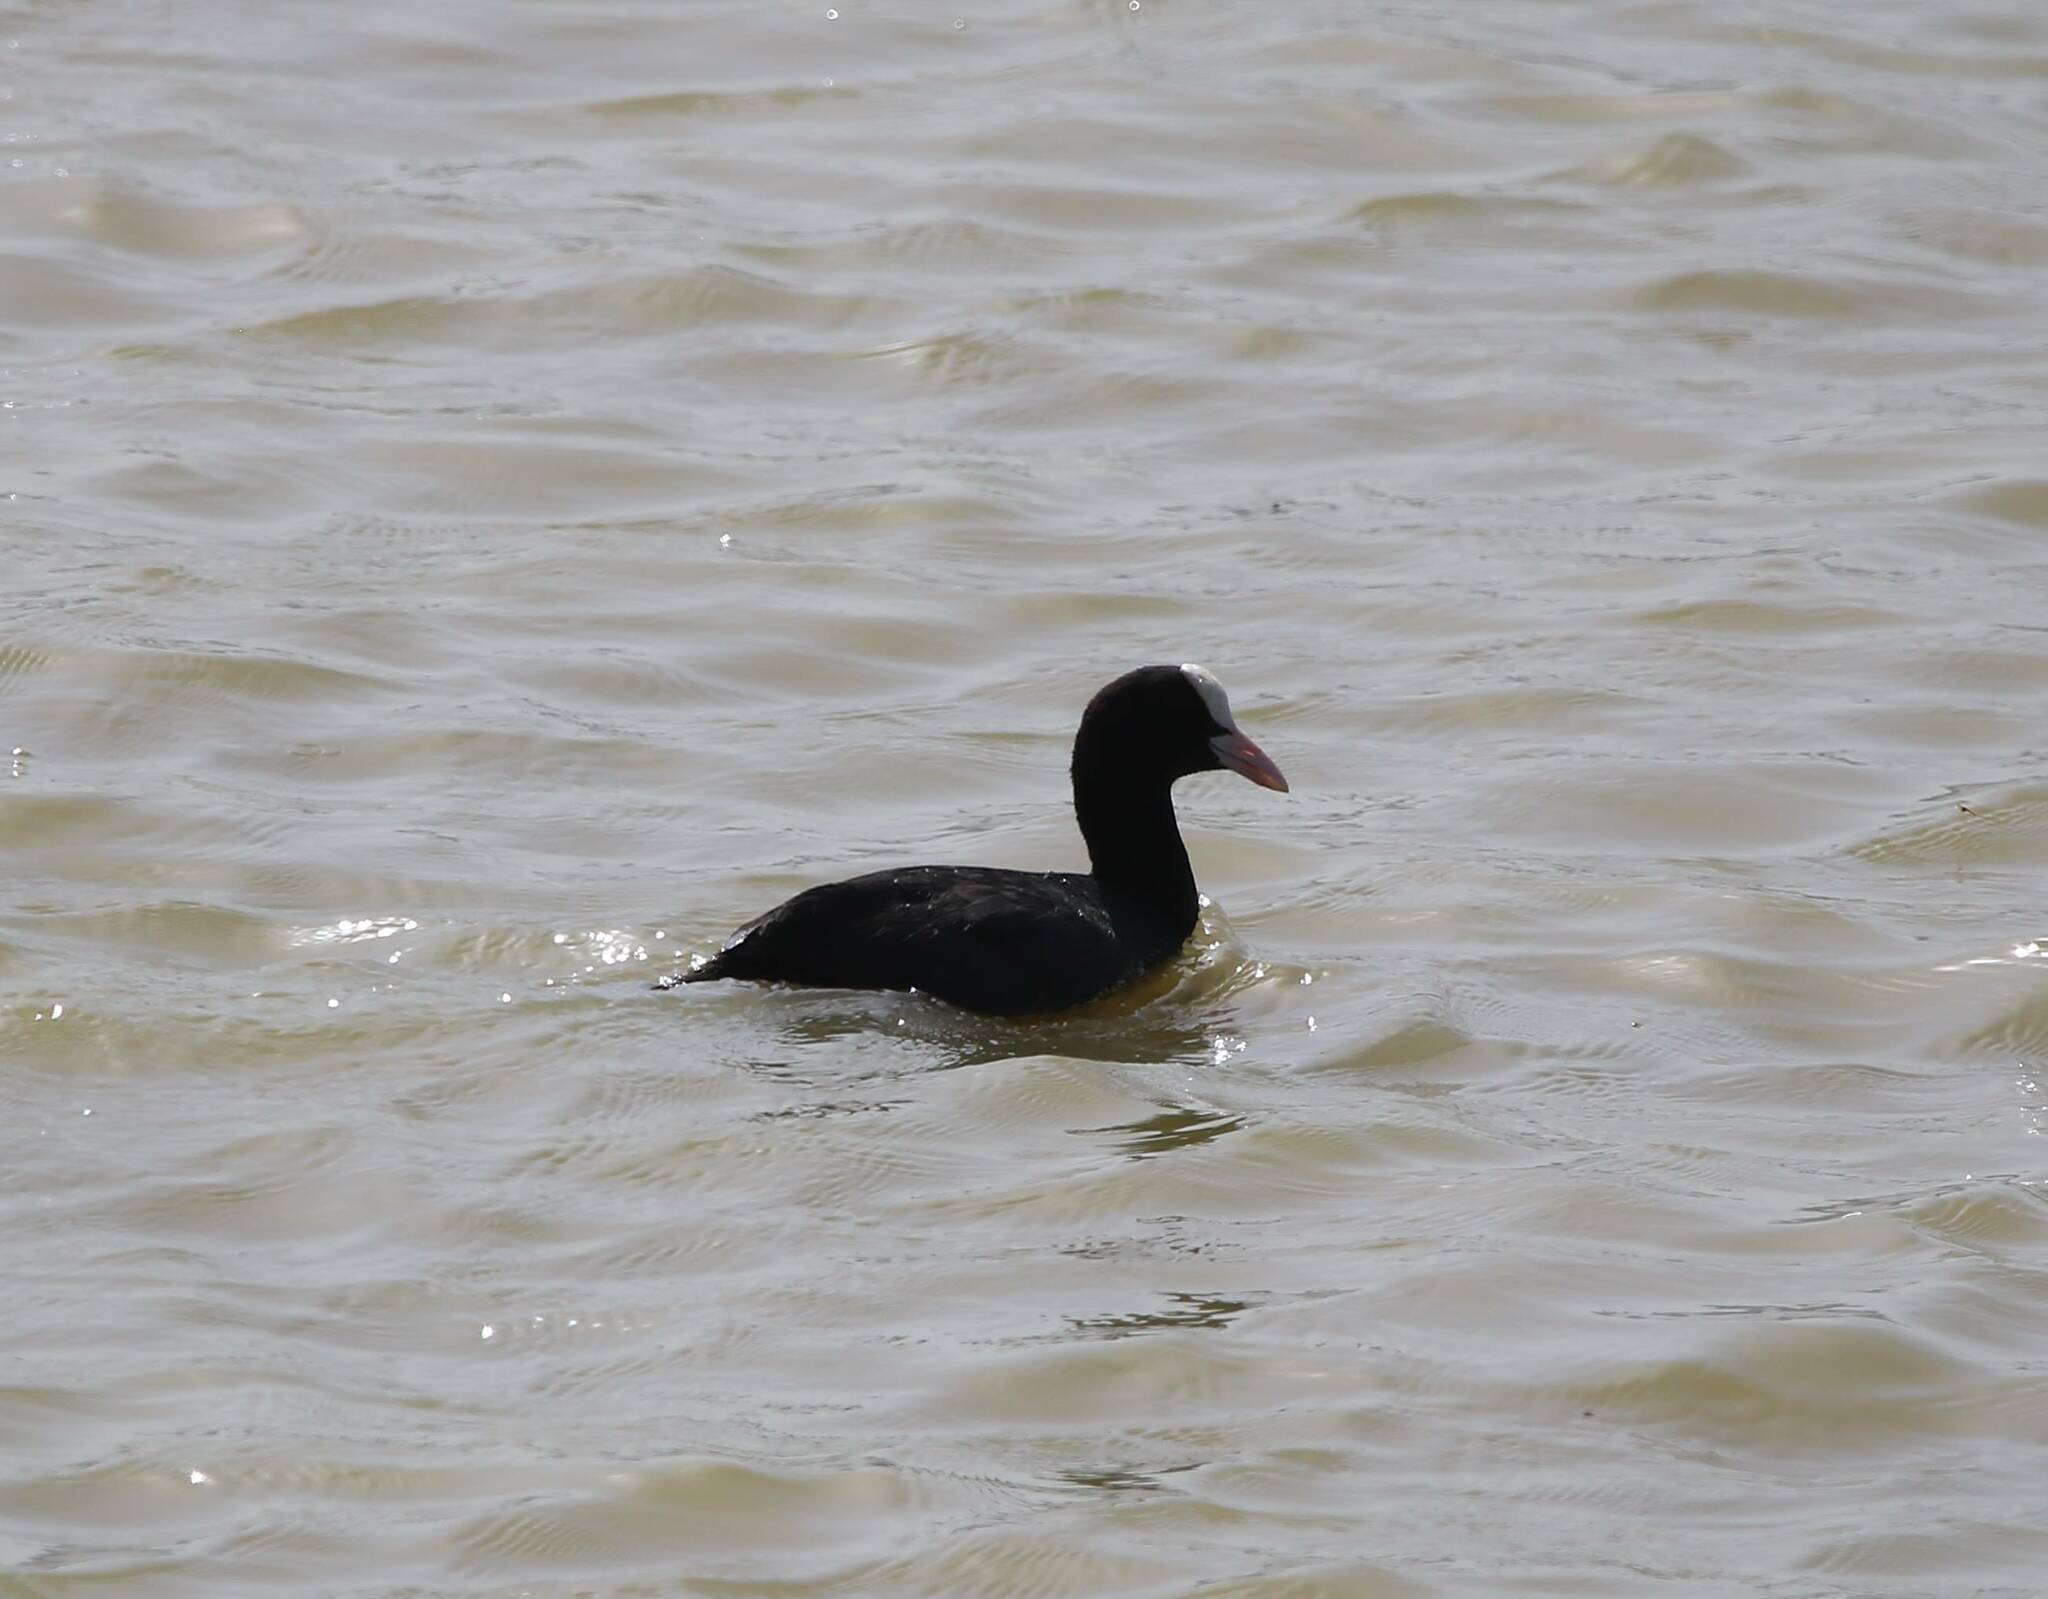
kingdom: Animalia
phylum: Chordata
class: Aves
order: Gruiformes
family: Rallidae
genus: Fulica
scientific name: Fulica atra
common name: Eurasian coot
